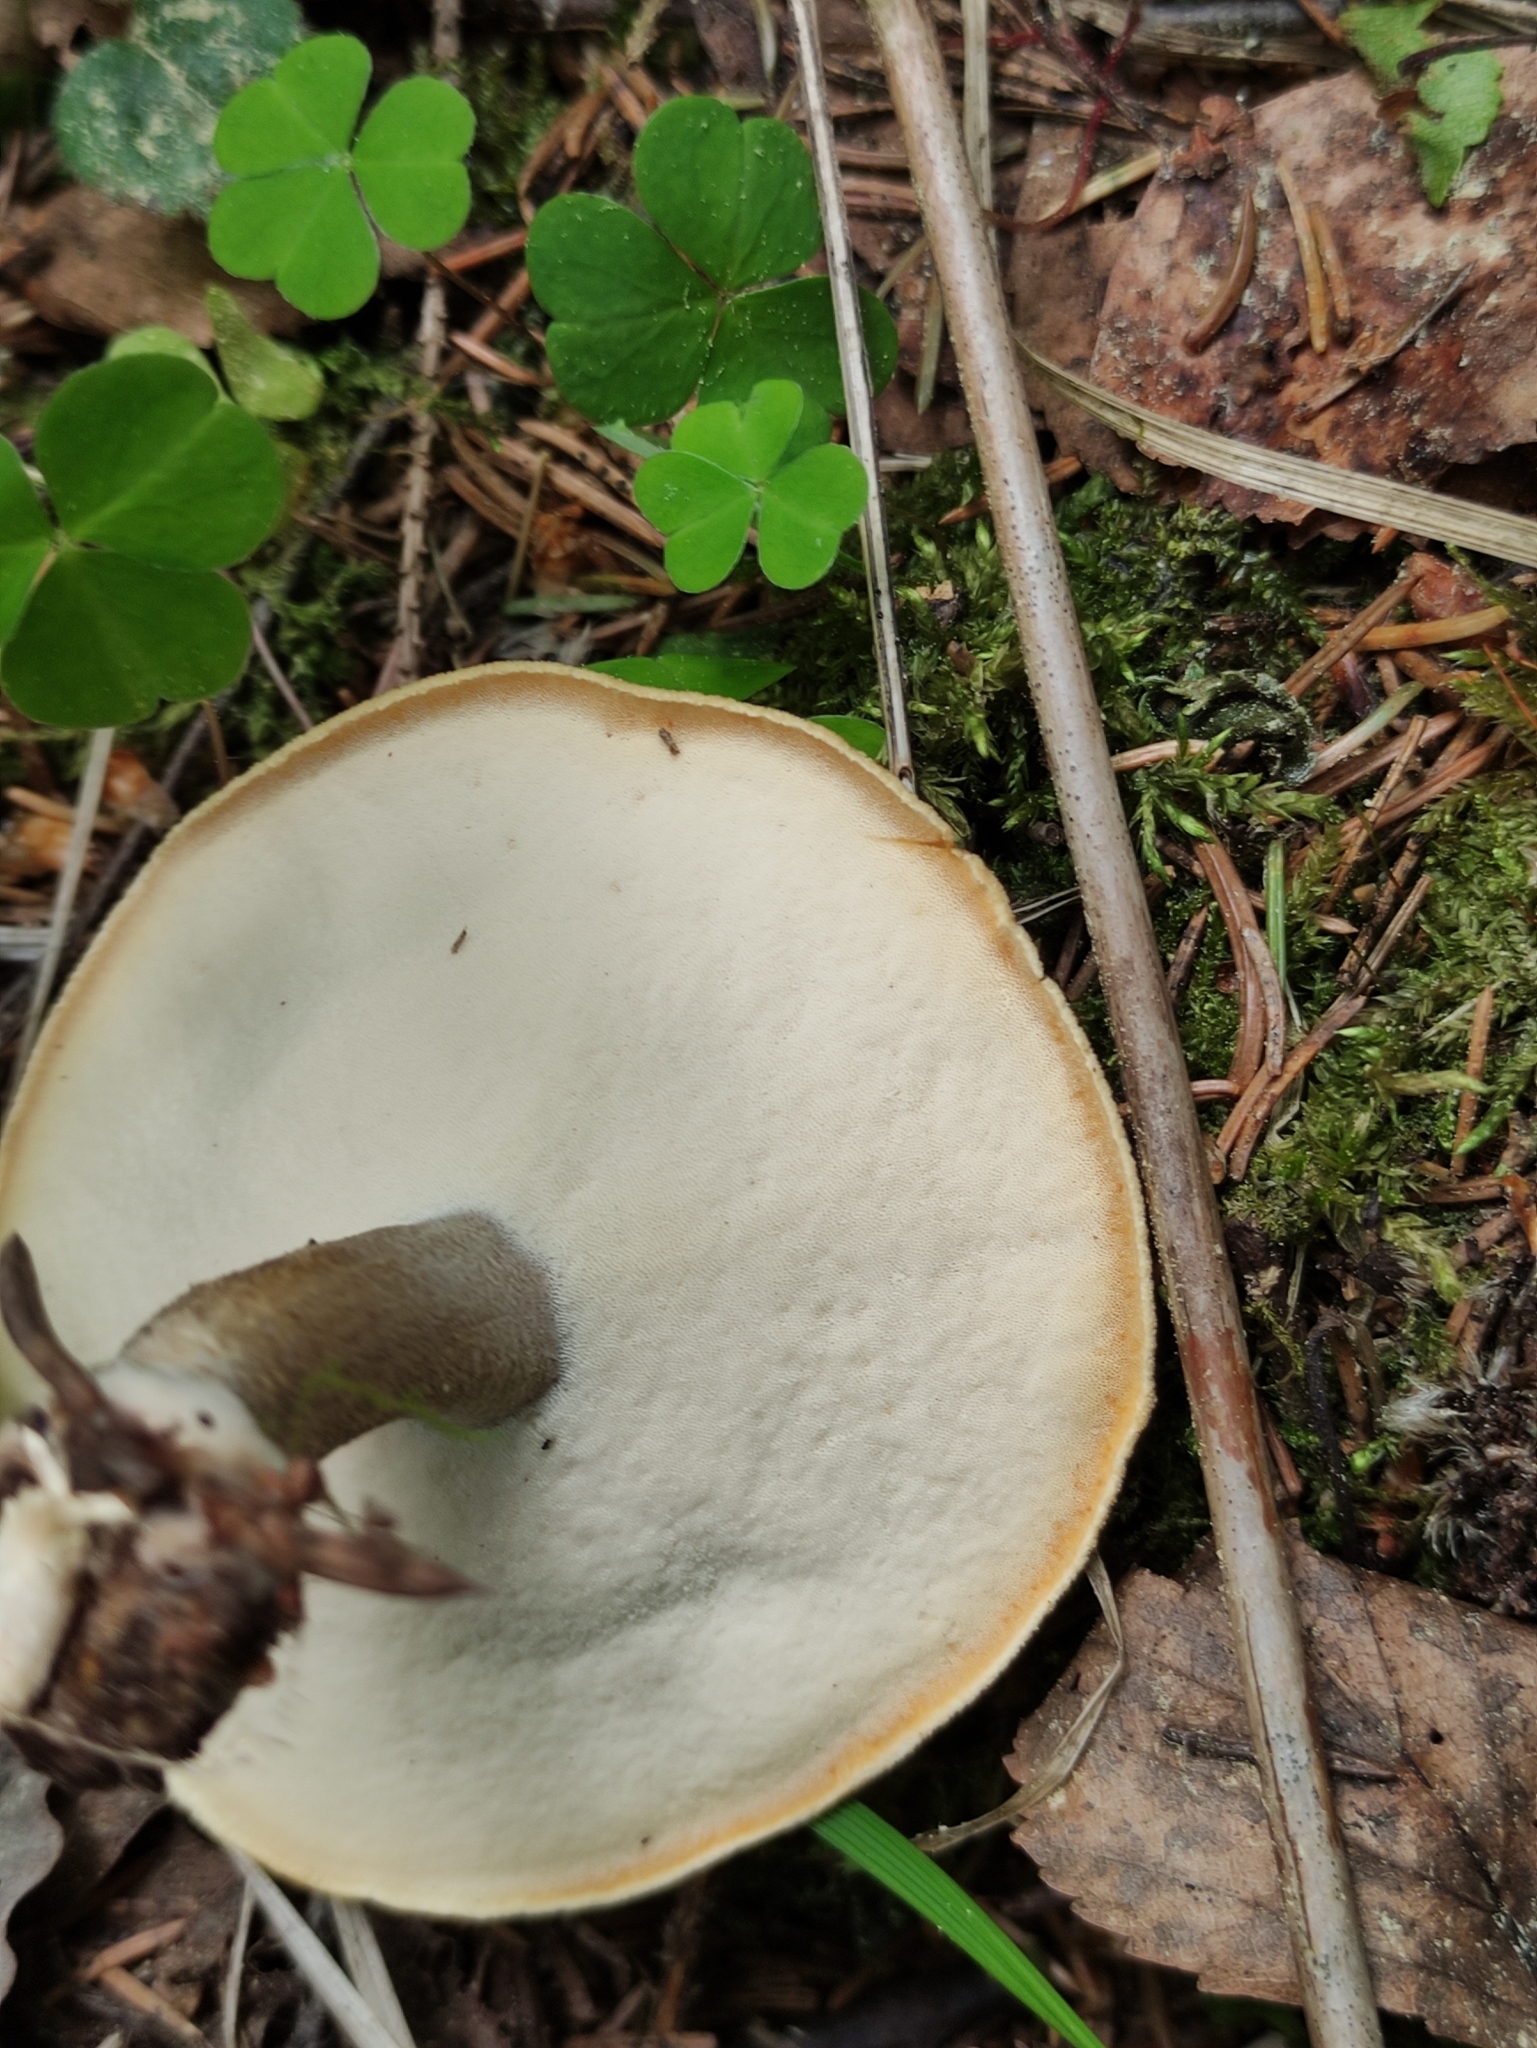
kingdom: Fungi
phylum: Basidiomycota
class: Agaricomycetes
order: Polyporales
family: Polyporaceae
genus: Lentinus
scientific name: Lentinus substrictus
